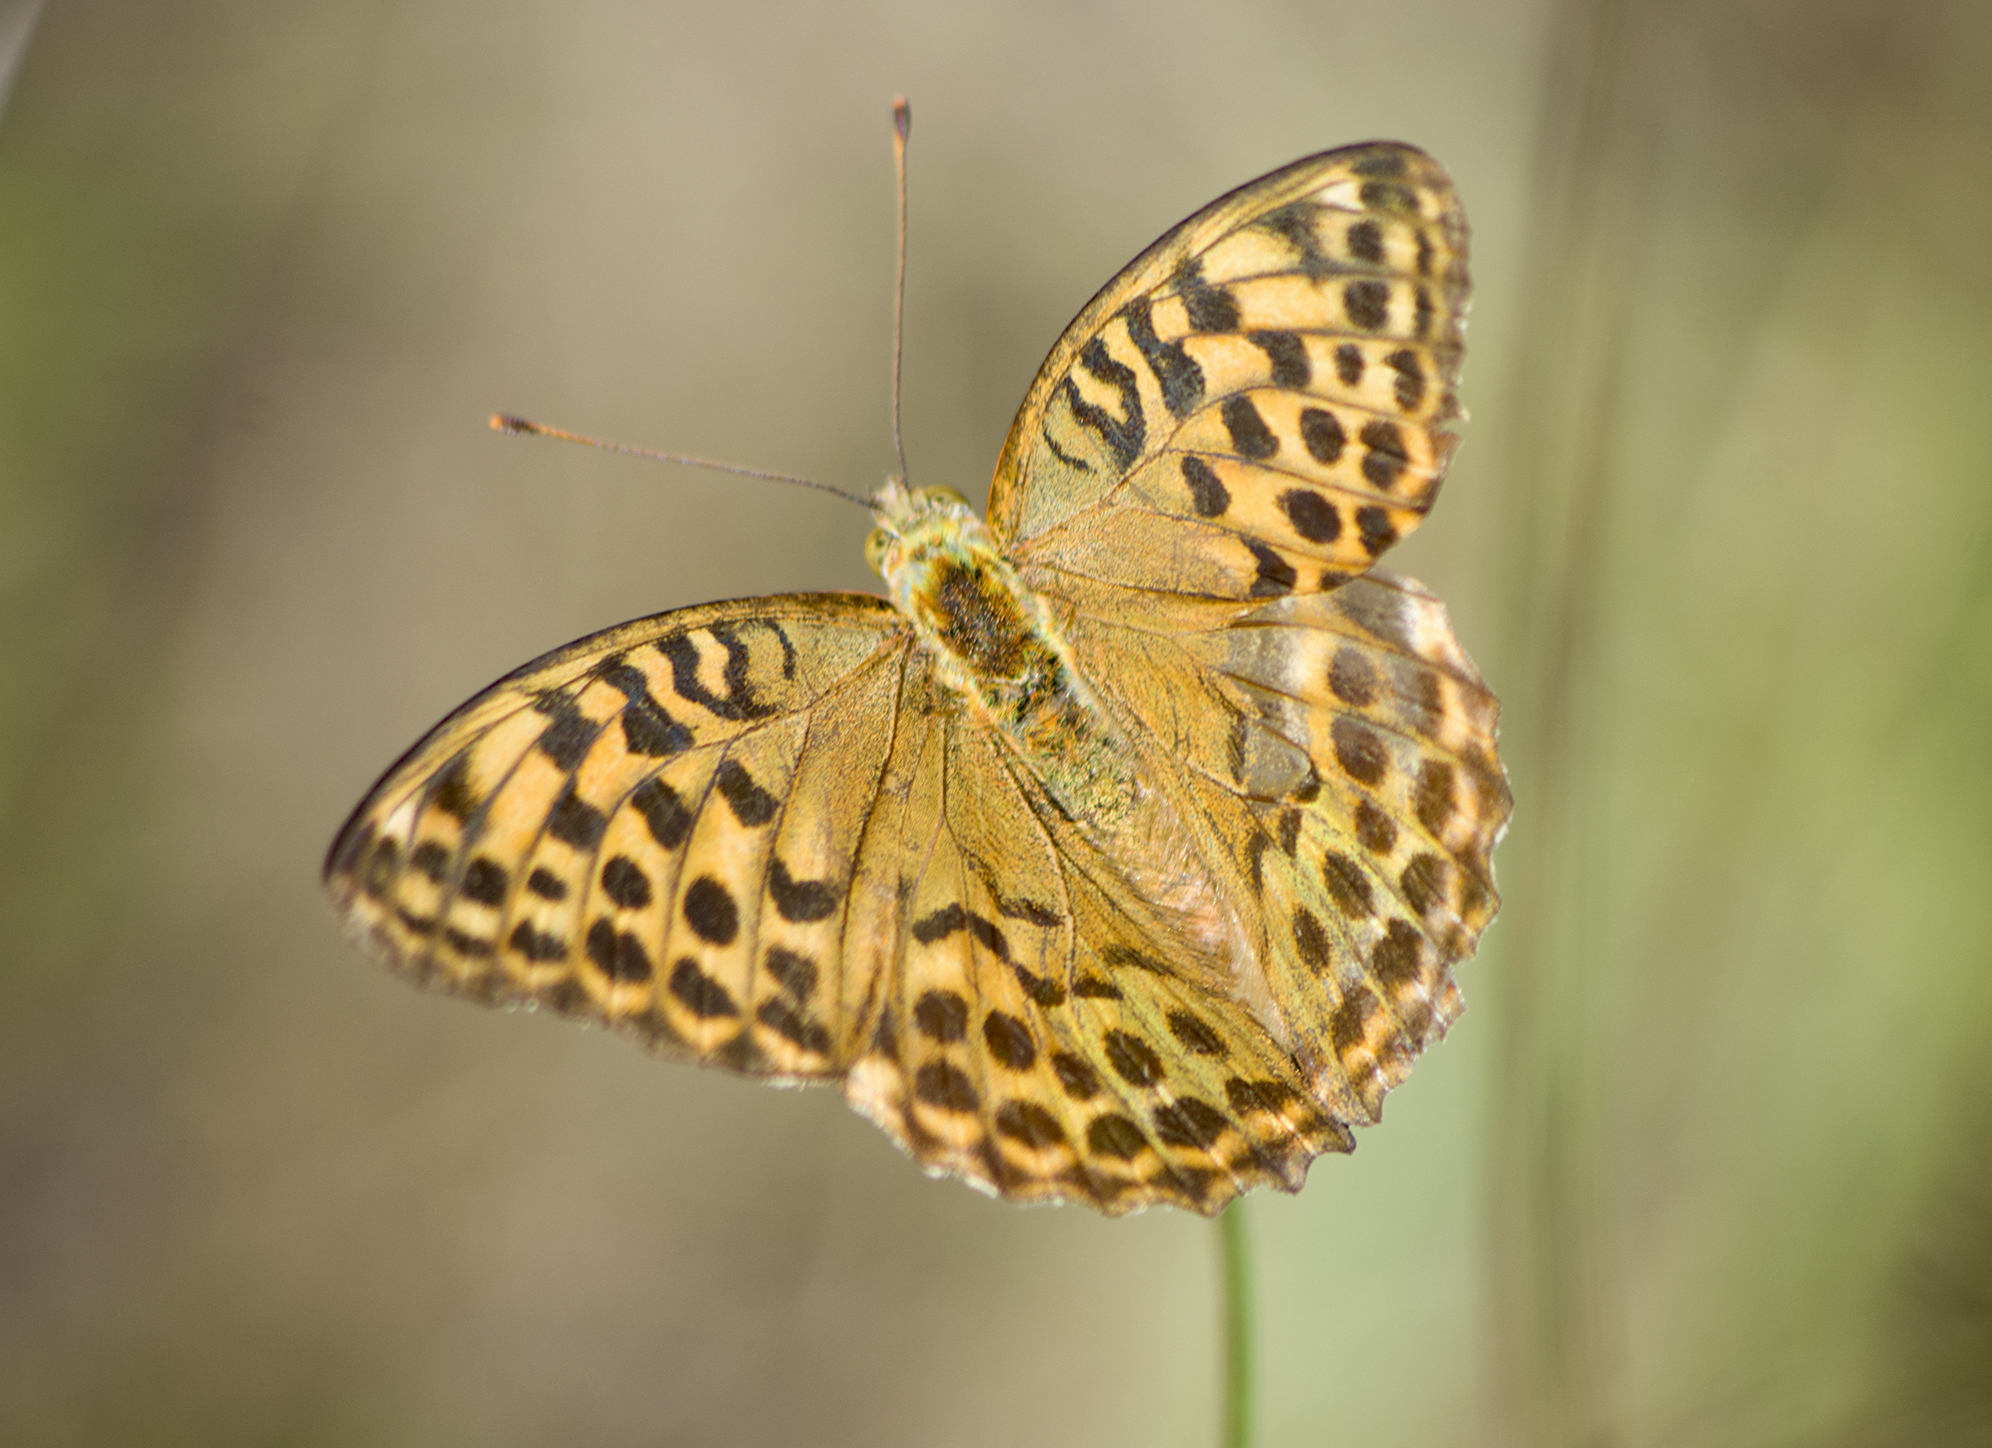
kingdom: Animalia
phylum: Arthropoda
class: Insecta
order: Lepidoptera
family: Nymphalidae
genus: Argynnis
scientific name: Argynnis paphia
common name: Silver-washed fritillary
